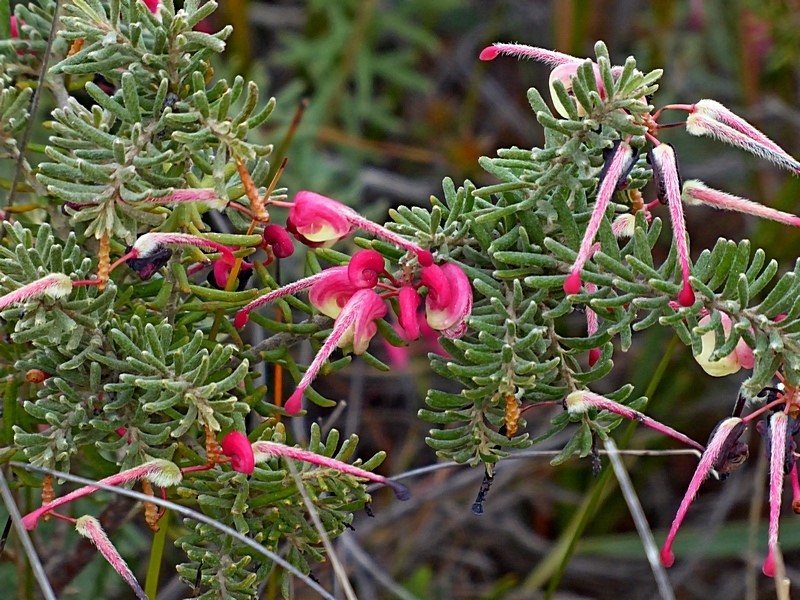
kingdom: Plantae
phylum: Tracheophyta
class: Magnoliopsida
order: Proteales
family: Proteaceae
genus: Grevillea
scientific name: Grevillea lanigera
